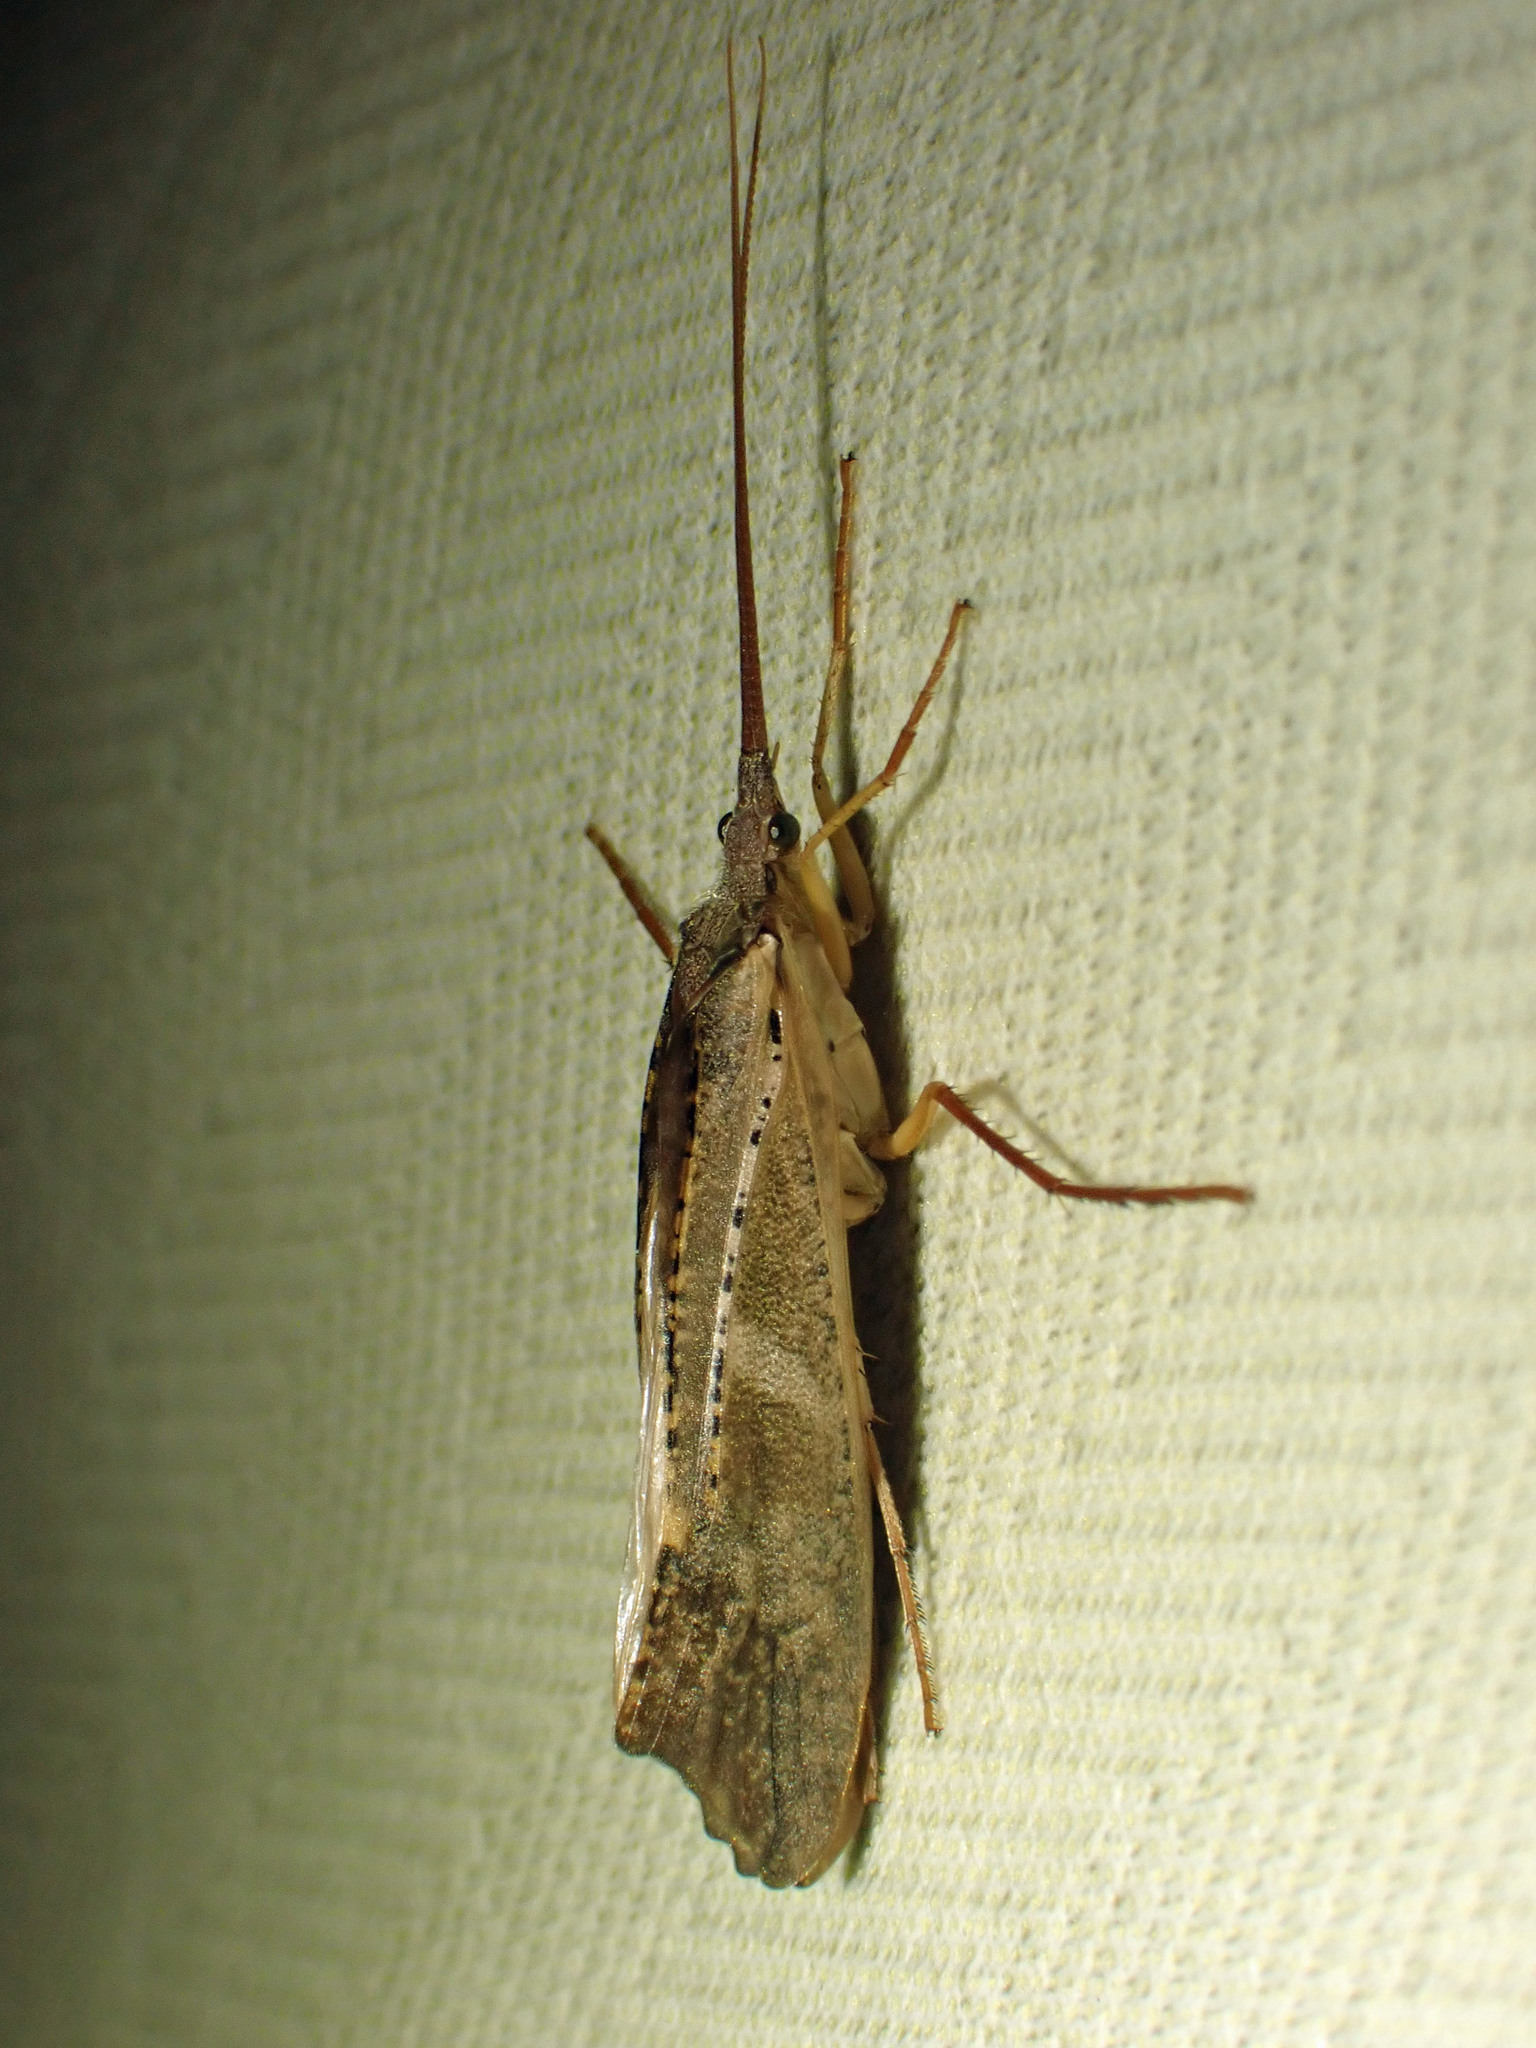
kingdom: Animalia
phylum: Arthropoda
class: Insecta
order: Trichoptera
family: Limnephilidae
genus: Nemotaulius
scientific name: Nemotaulius hostilis
